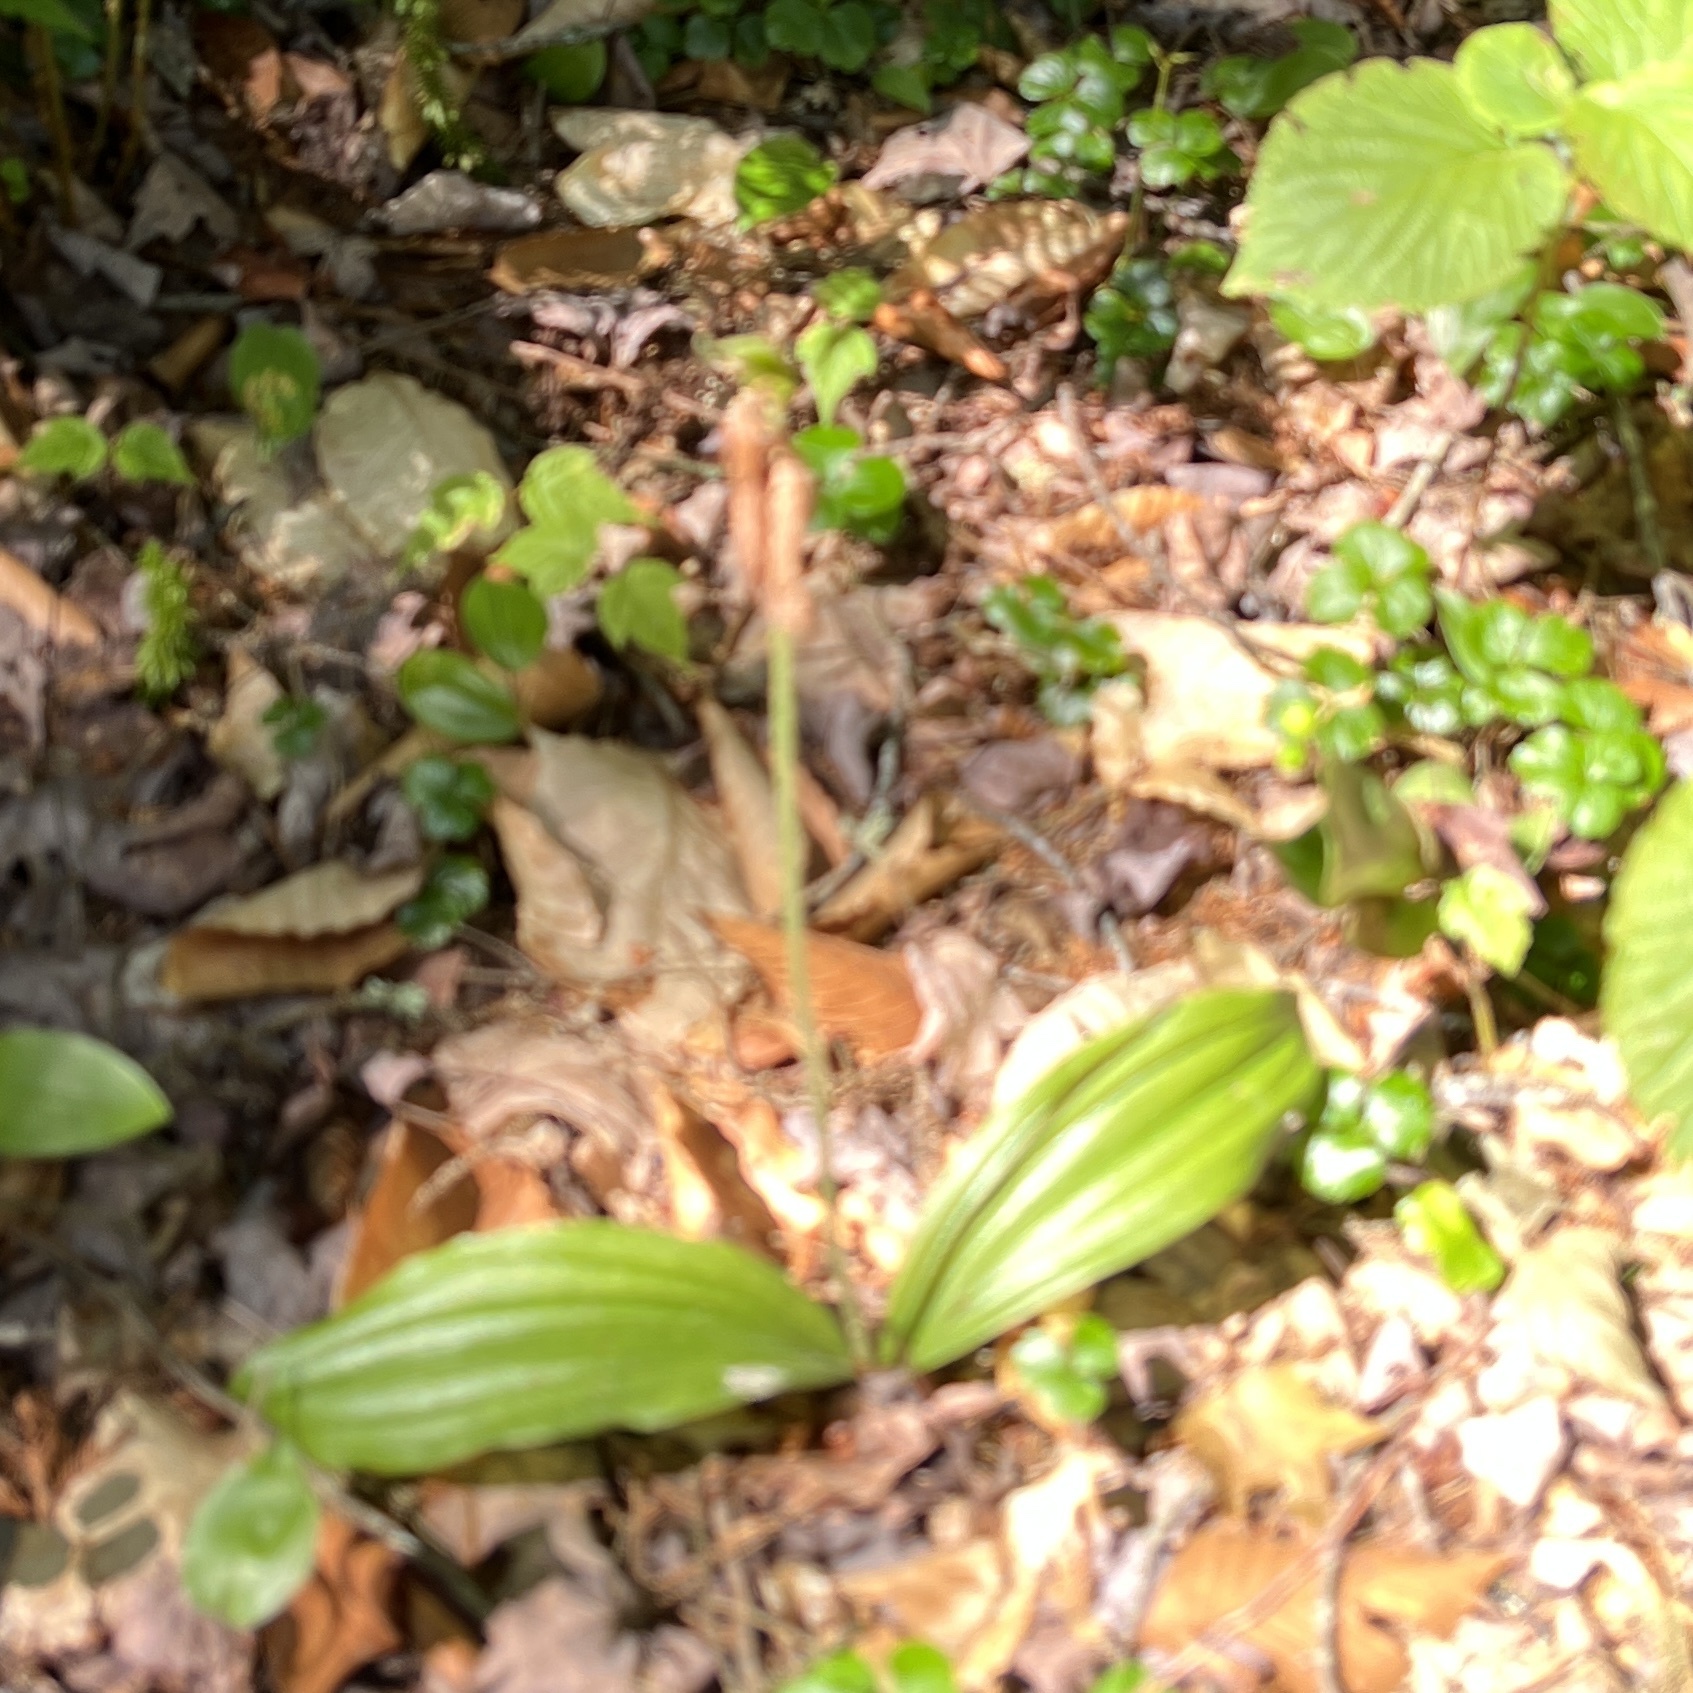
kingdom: Plantae
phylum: Tracheophyta
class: Liliopsida
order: Asparagales
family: Orchidaceae
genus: Cypripedium
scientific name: Cypripedium acaule
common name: Pink lady's-slipper
